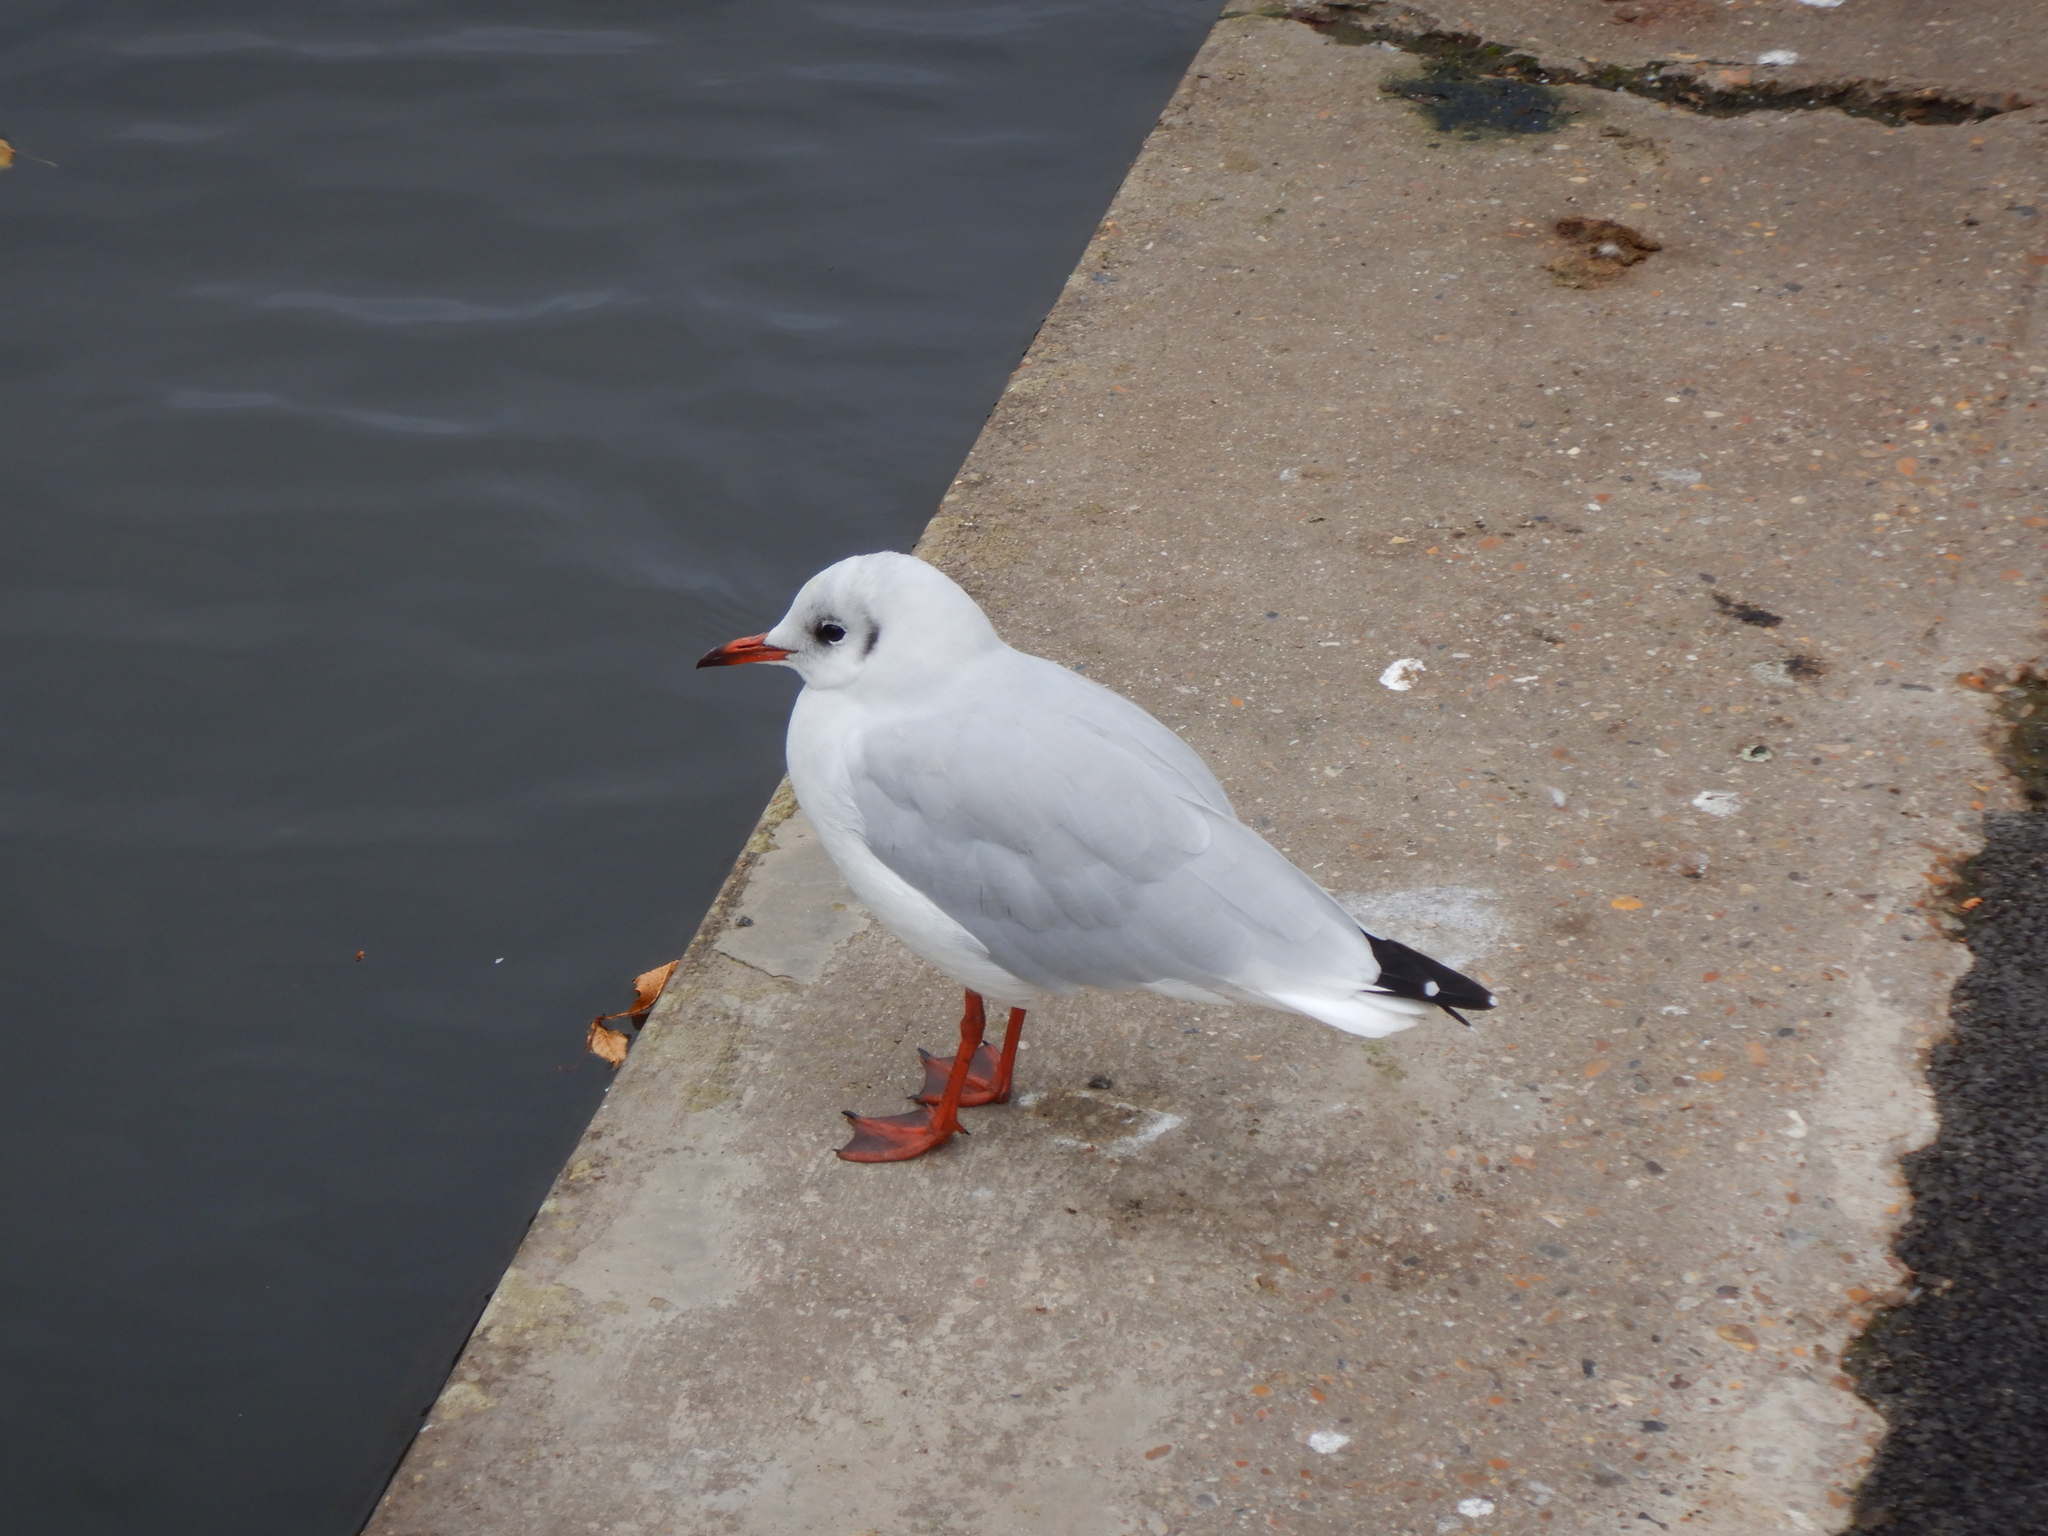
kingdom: Animalia
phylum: Chordata
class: Aves
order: Charadriiformes
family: Laridae
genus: Chroicocephalus
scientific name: Chroicocephalus ridibundus
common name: Black-headed gull
